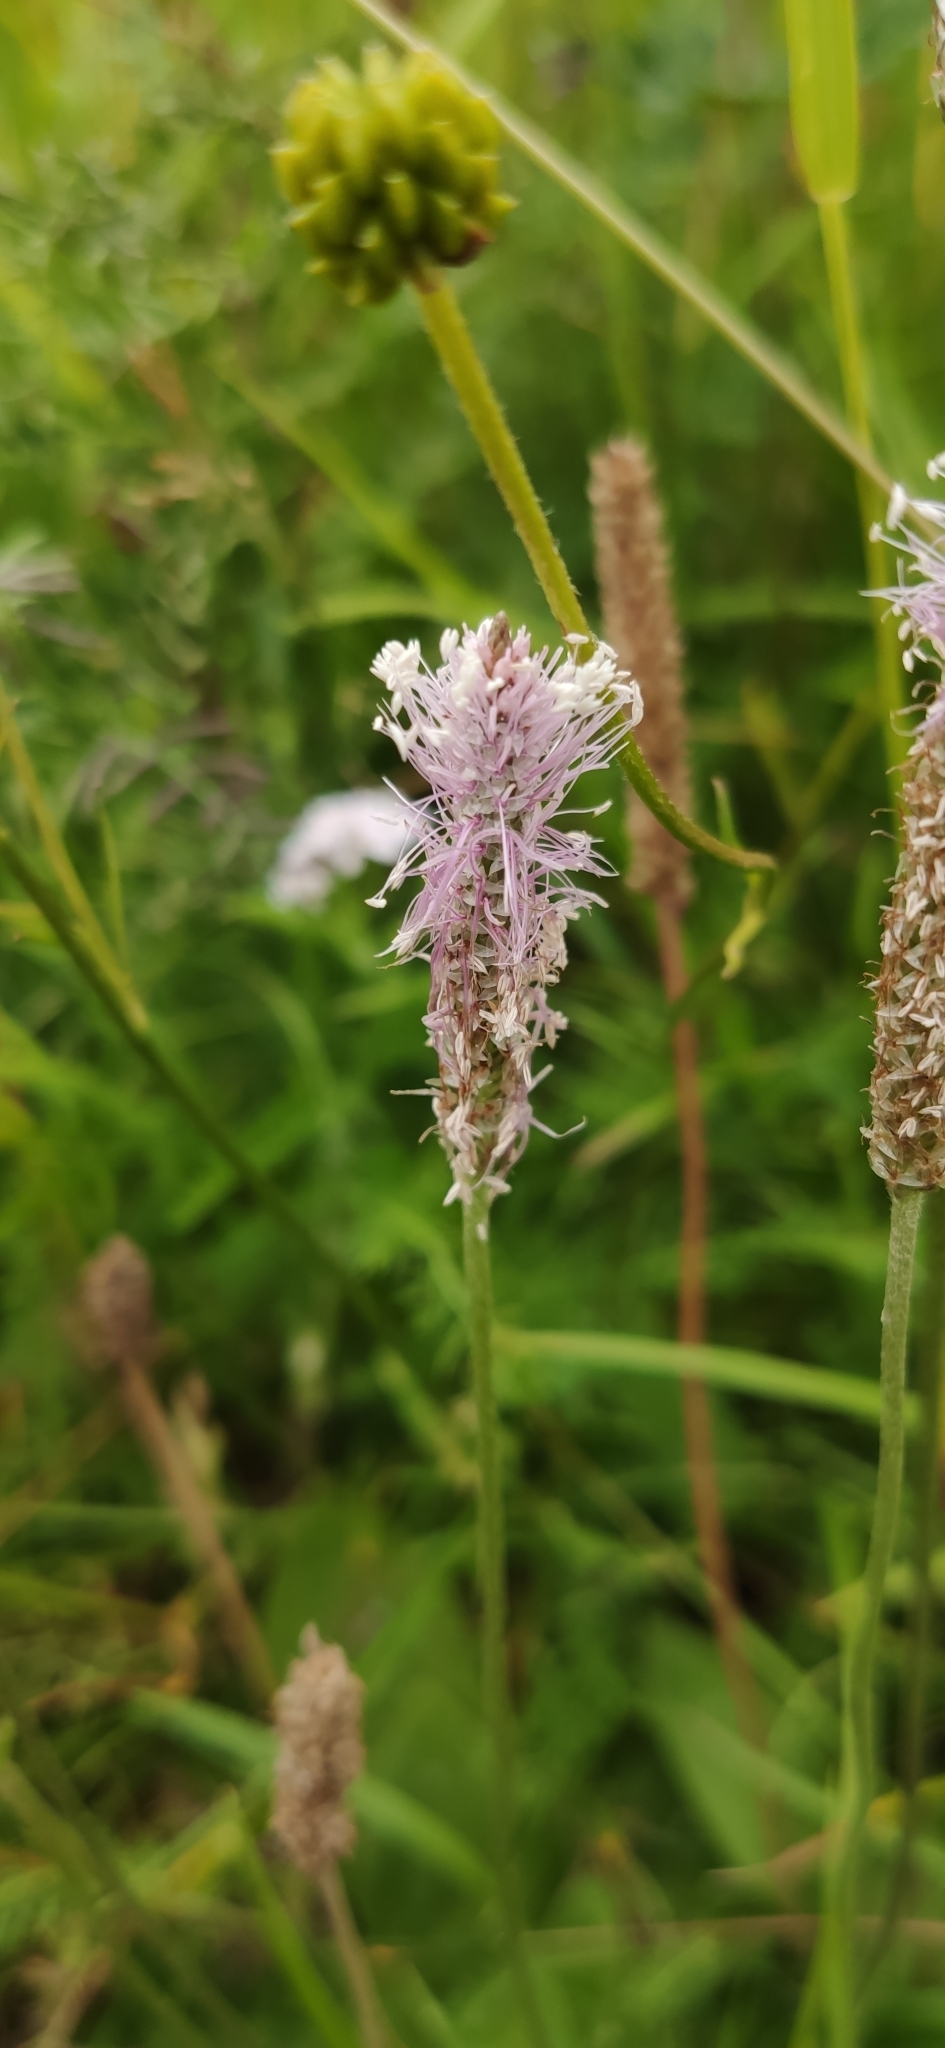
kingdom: Plantae
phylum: Tracheophyta
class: Magnoliopsida
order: Lamiales
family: Plantaginaceae
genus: Plantago
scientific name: Plantago media
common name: Hoary plantain
